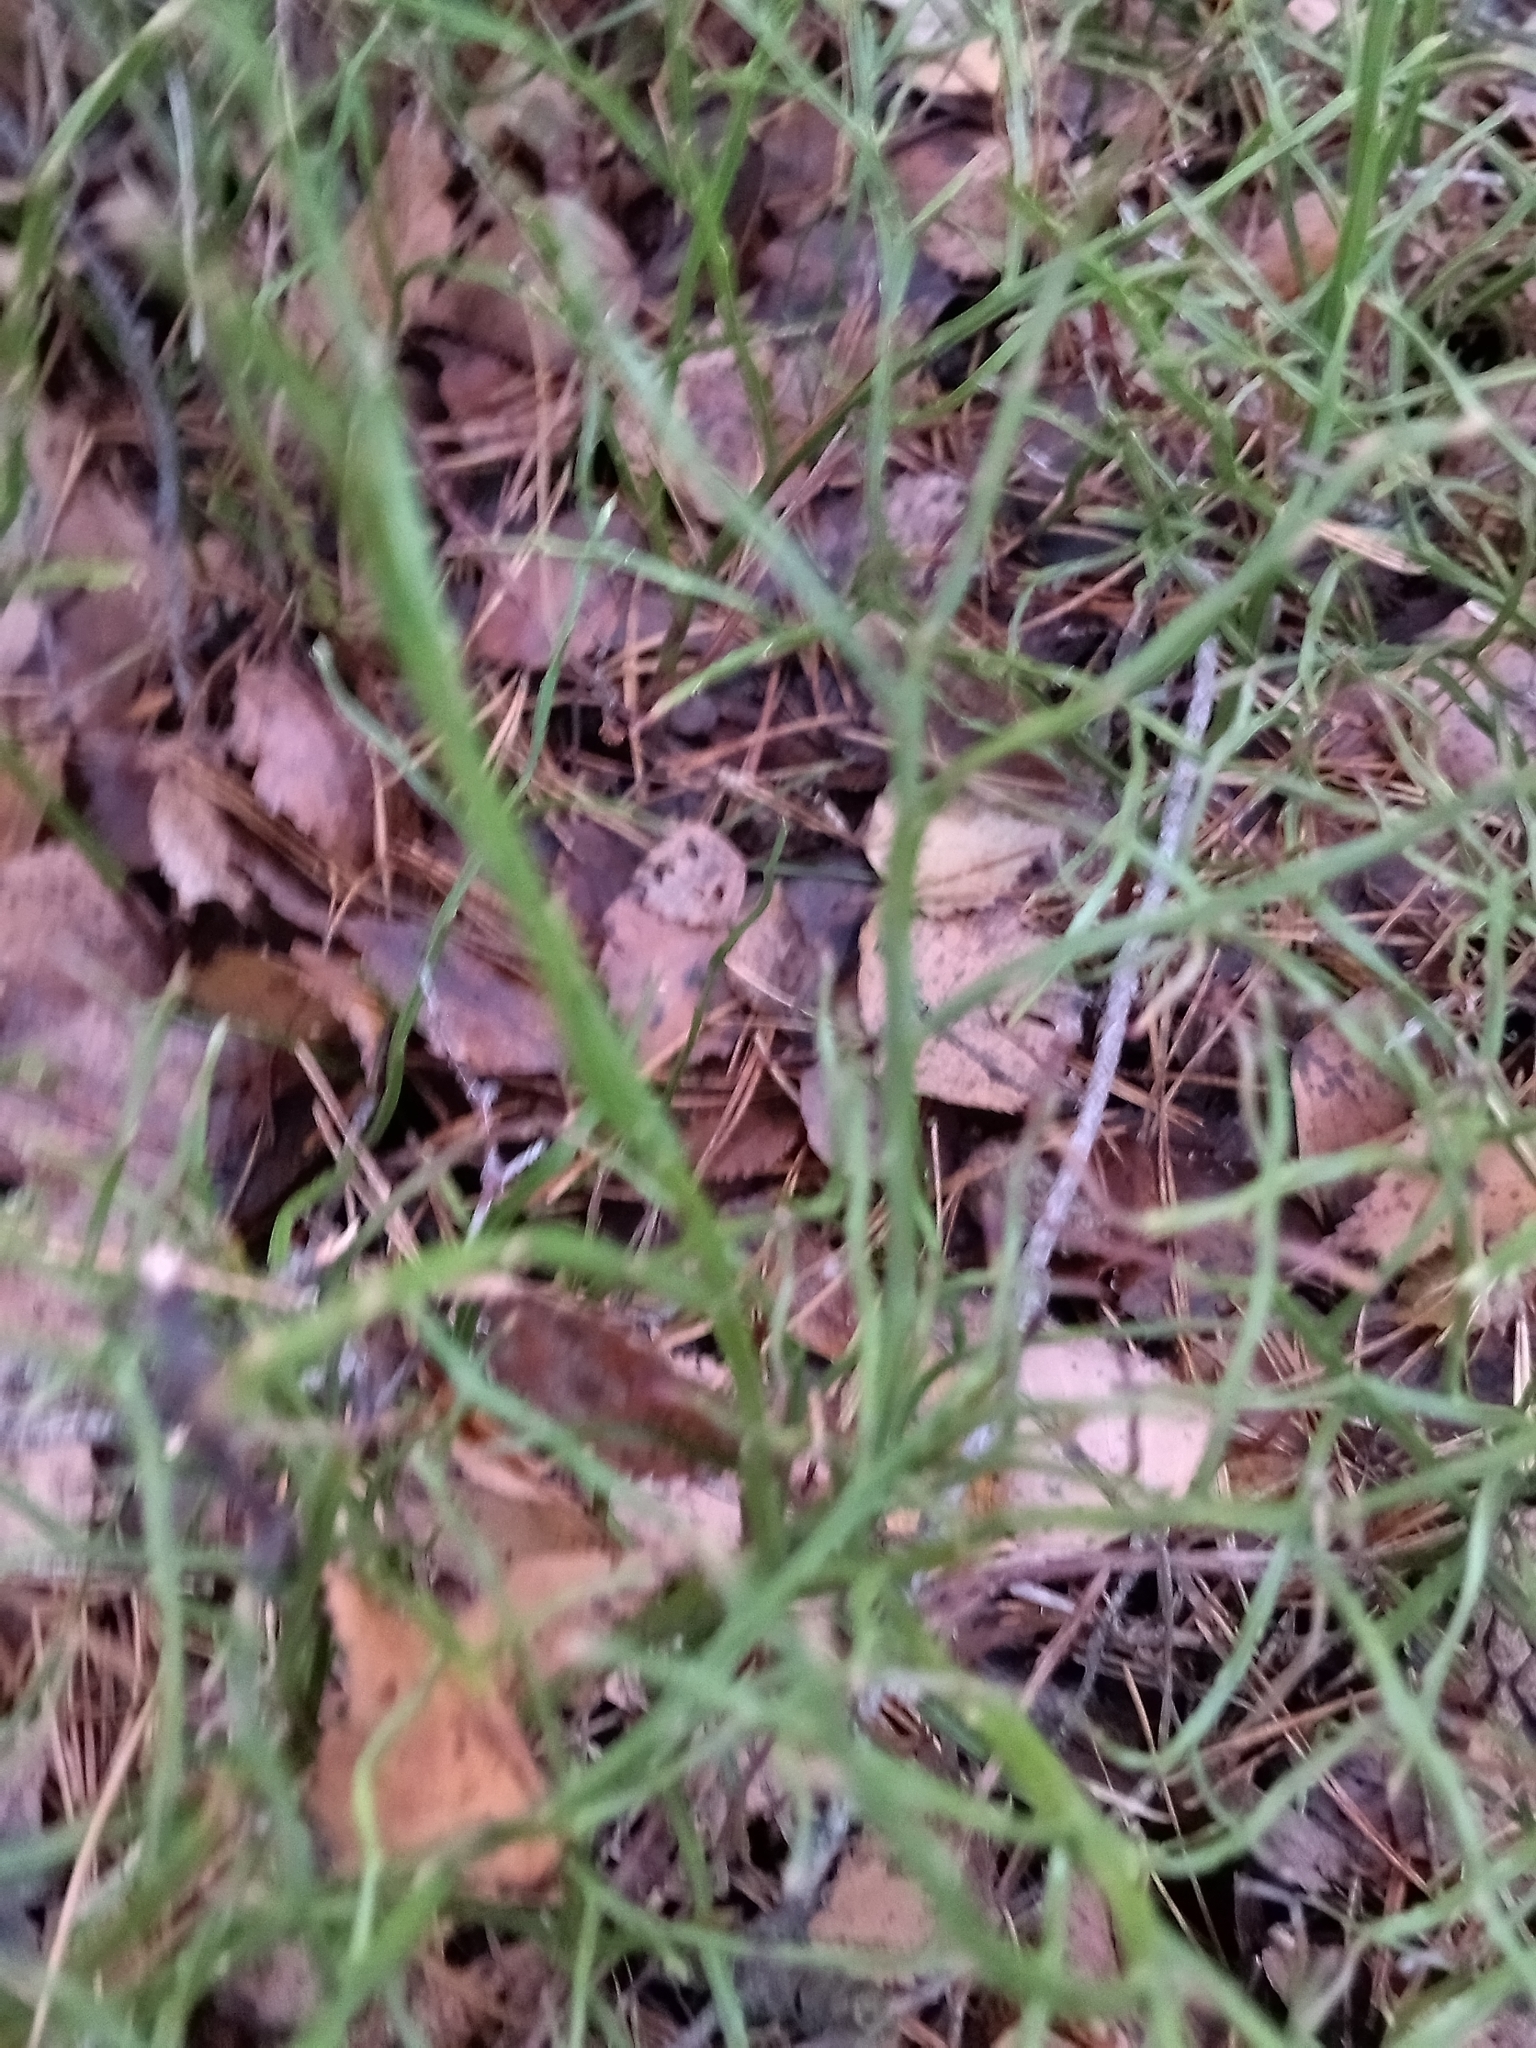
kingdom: Plantae
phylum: Tracheophyta
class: Magnoliopsida
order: Ericales
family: Ericaceae
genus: Vaccinium
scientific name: Vaccinium myrtillus
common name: Bilberry
